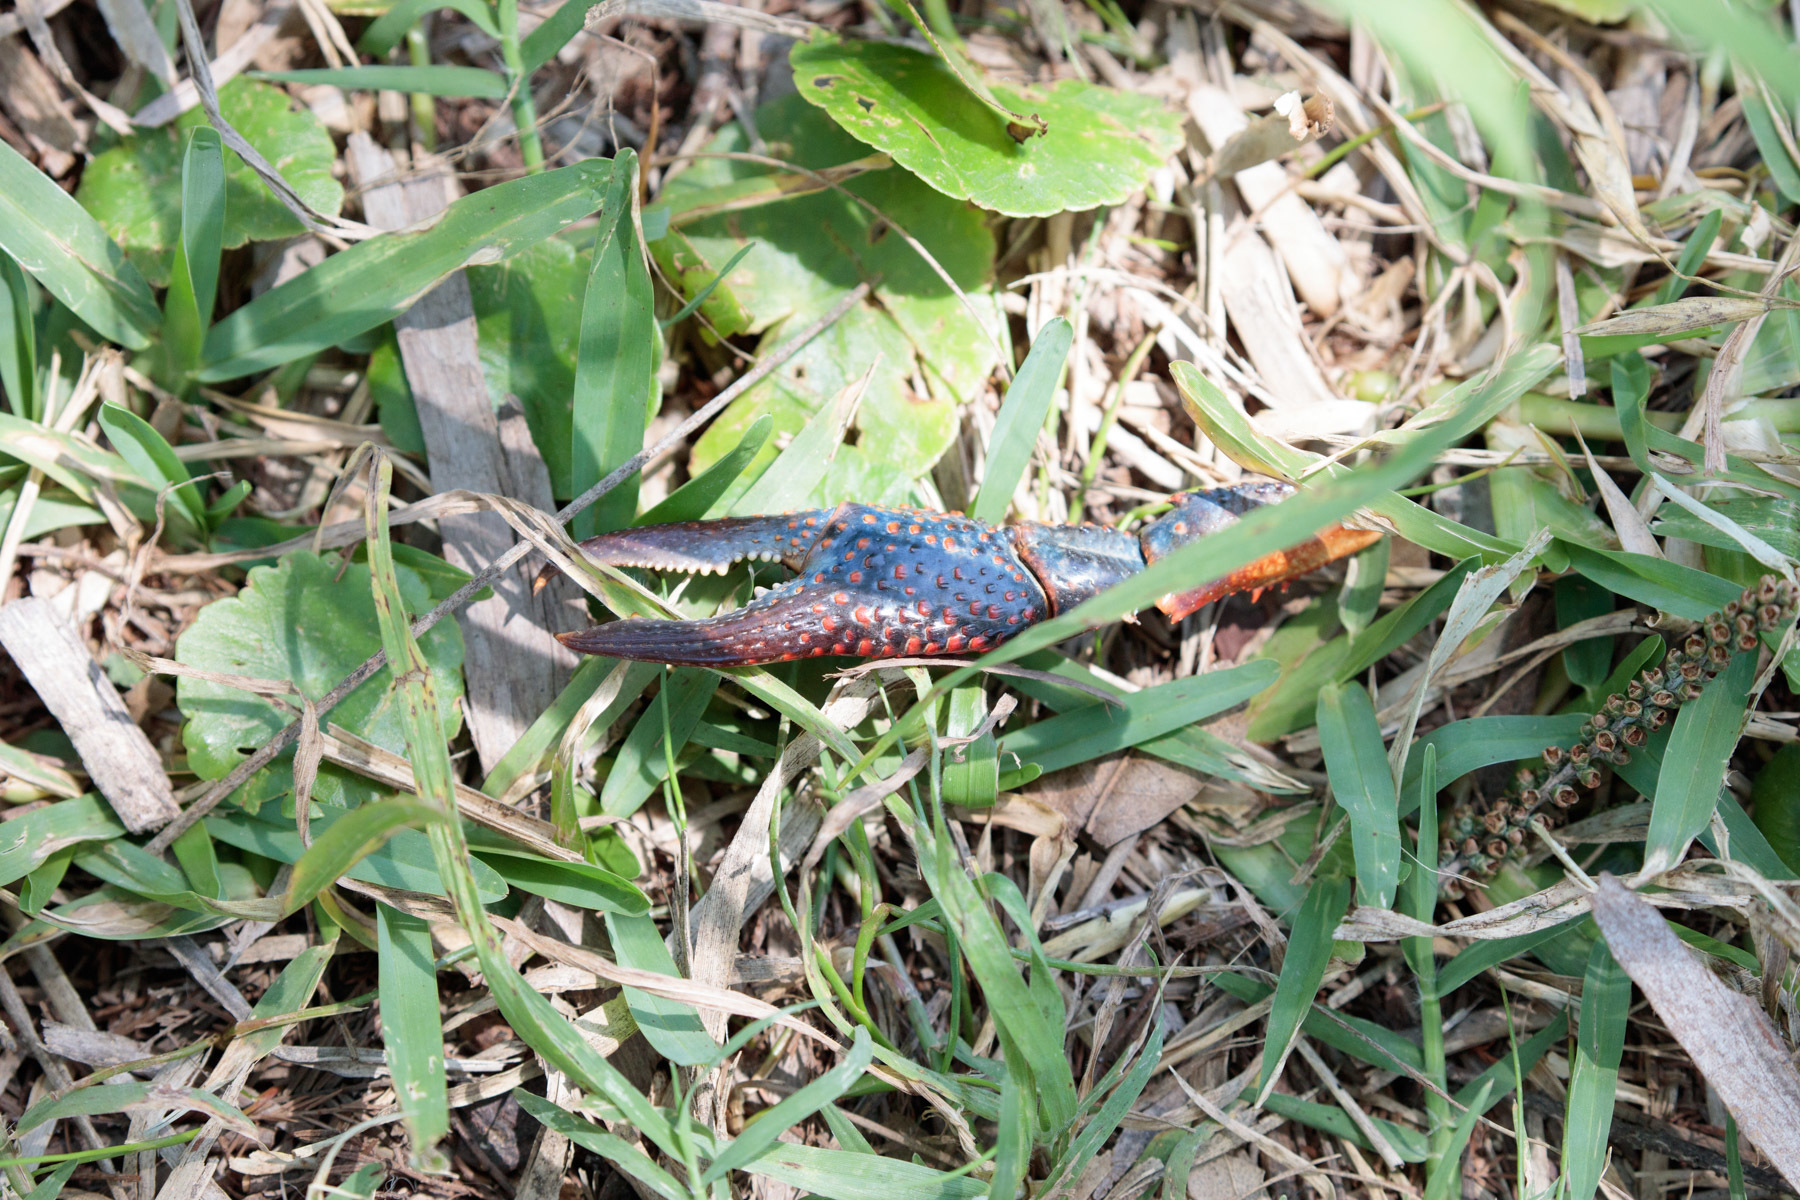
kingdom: Animalia
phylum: Arthropoda
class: Malacostraca
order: Decapoda
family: Cambaridae
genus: Procambarus
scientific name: Procambarus clarkii
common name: Red swamp crayfish
